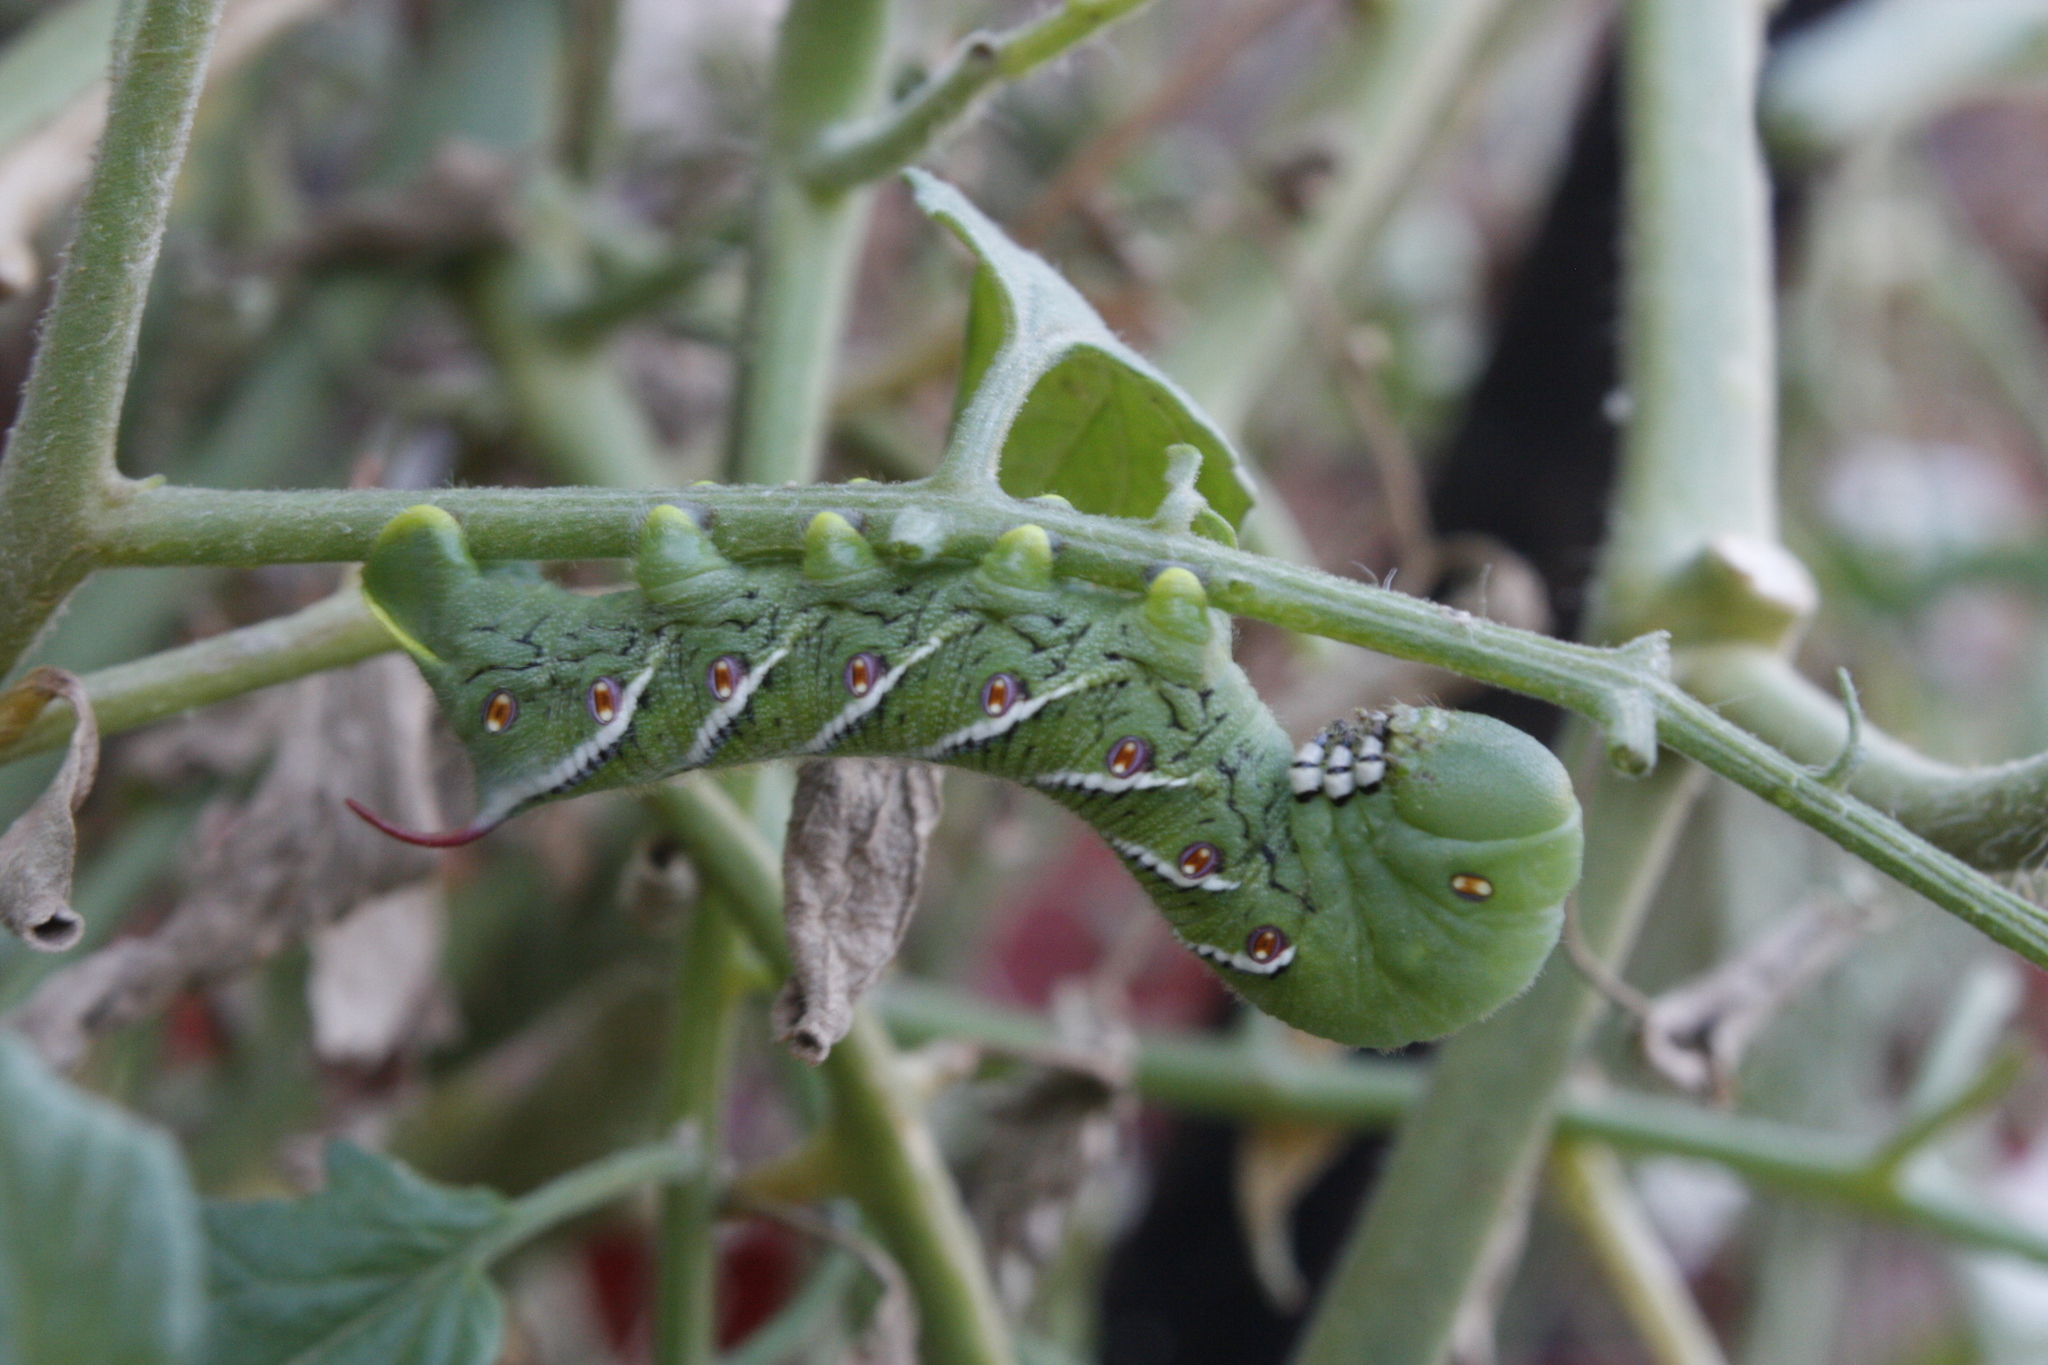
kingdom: Animalia
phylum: Arthropoda
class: Insecta
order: Lepidoptera
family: Sphingidae
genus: Manduca
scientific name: Manduca sexta
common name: Carolina sphinx
